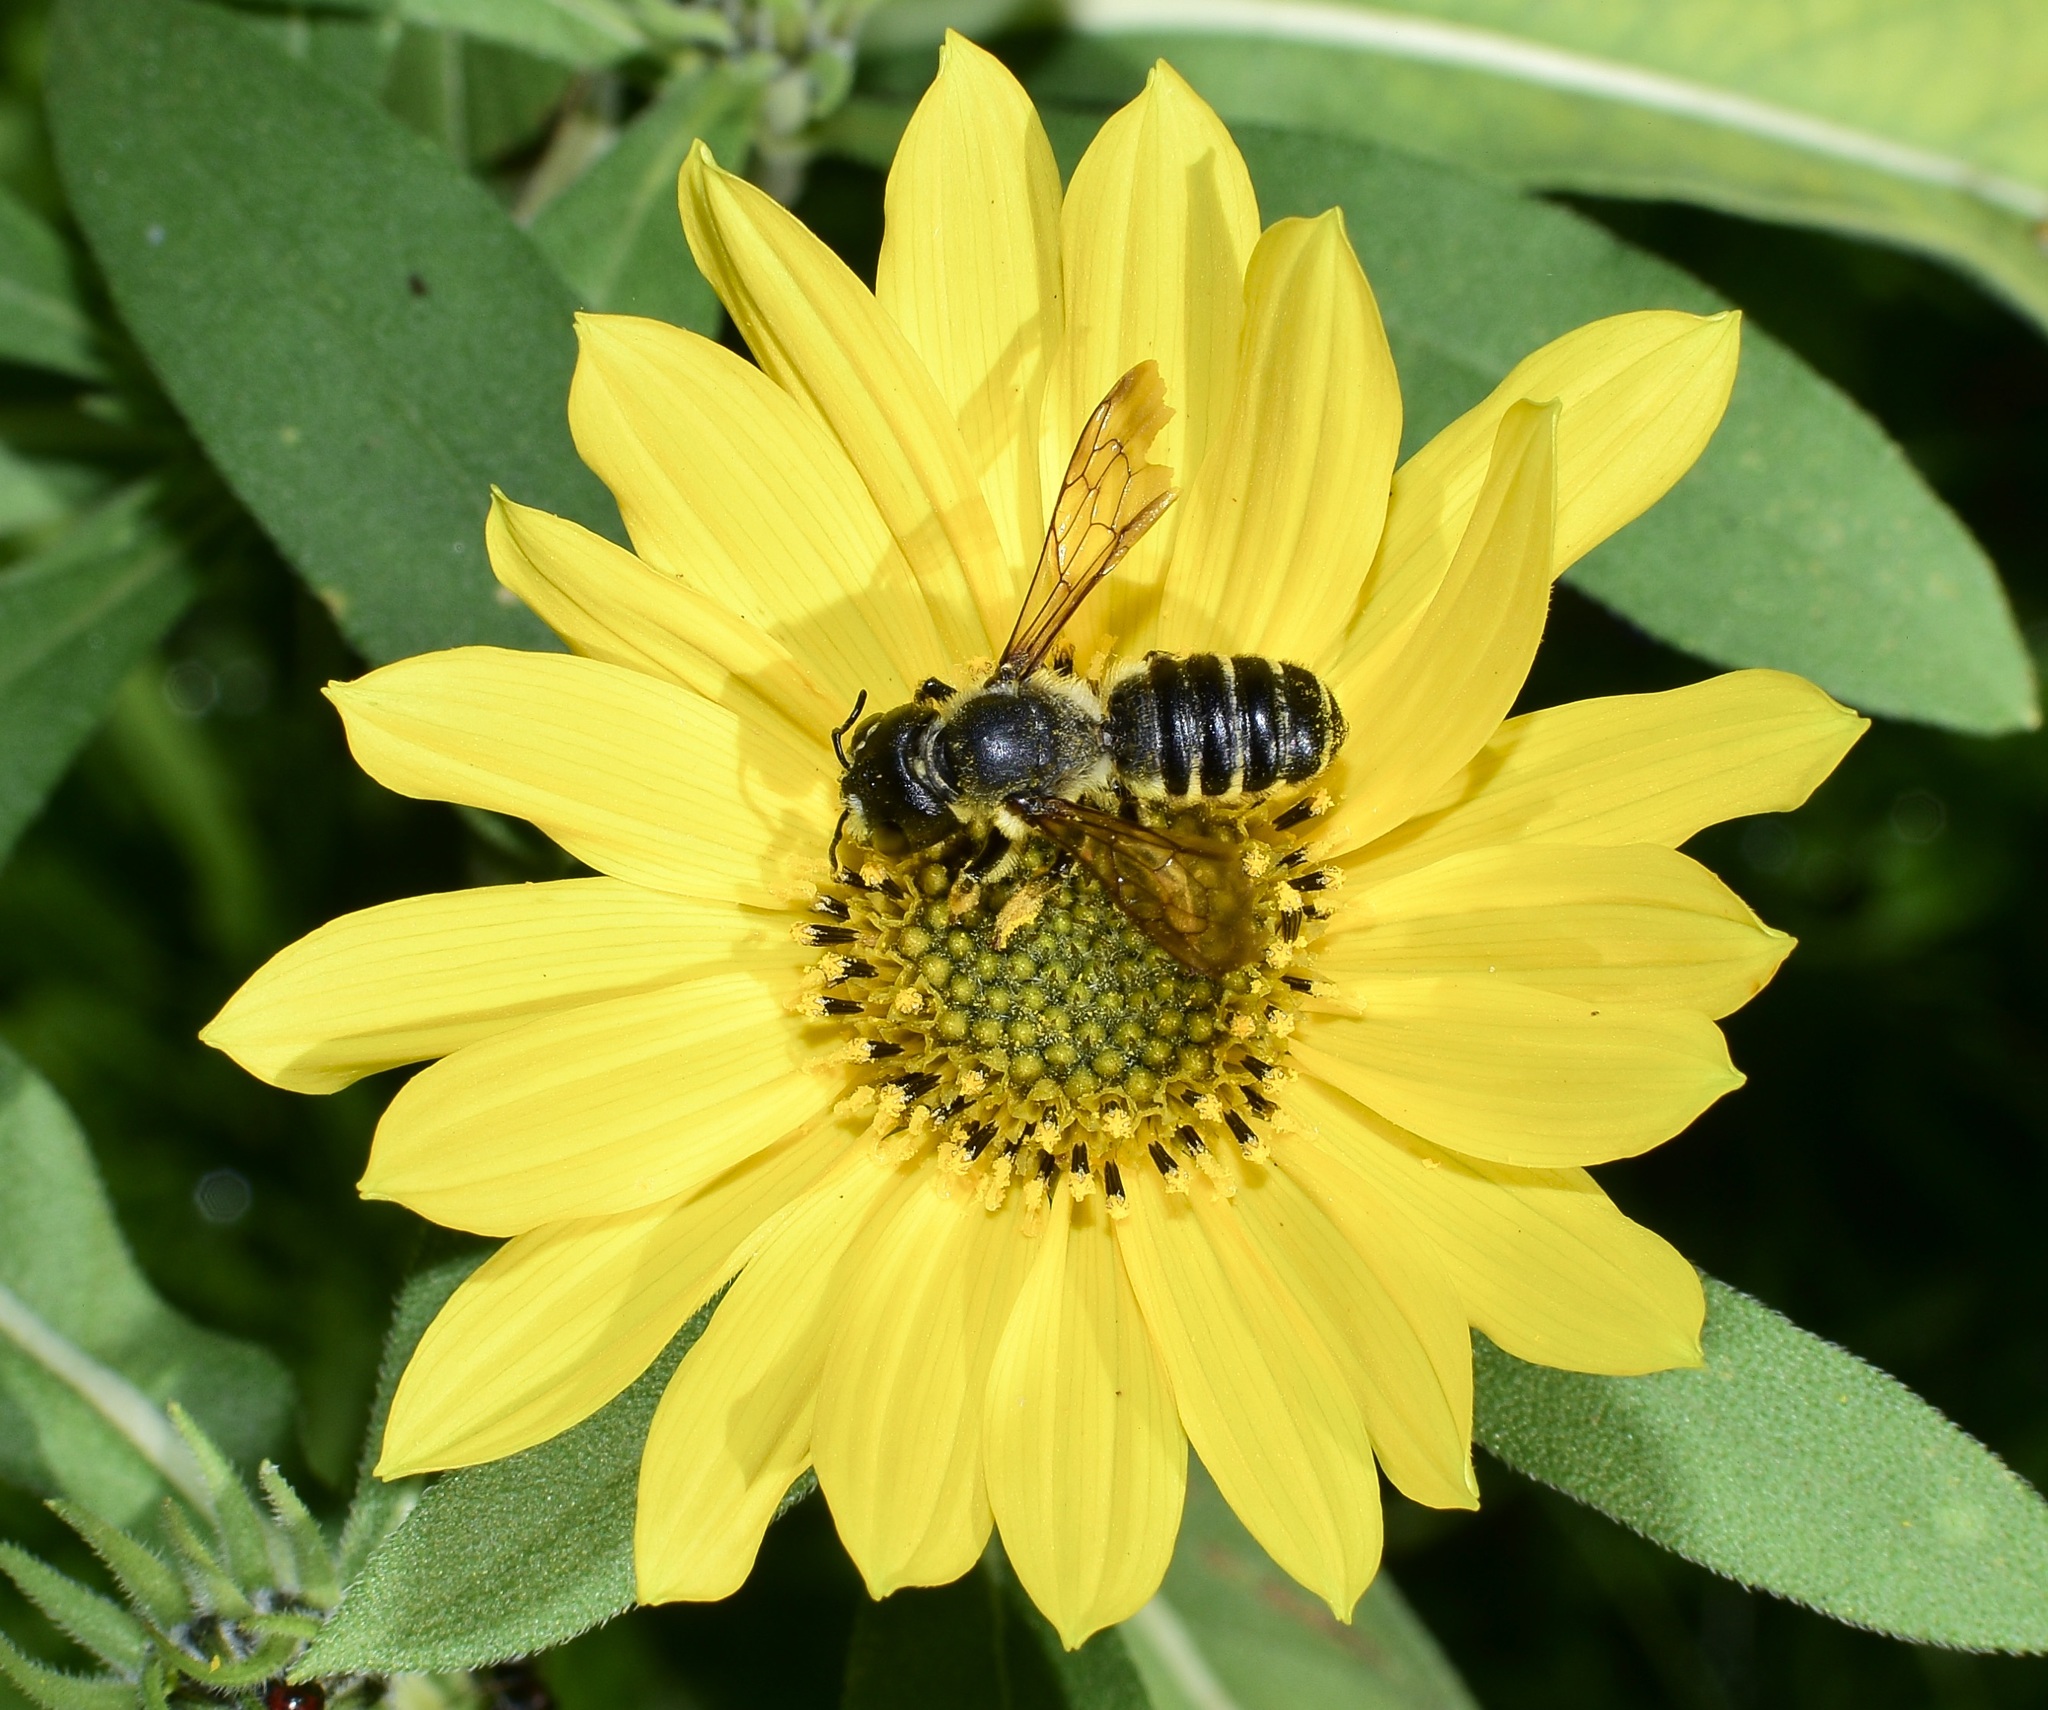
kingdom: Animalia
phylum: Arthropoda
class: Insecta
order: Hymenoptera
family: Megachilidae
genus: Megachile
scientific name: Megachile pugnata
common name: Pugnacious leafcutter bee
